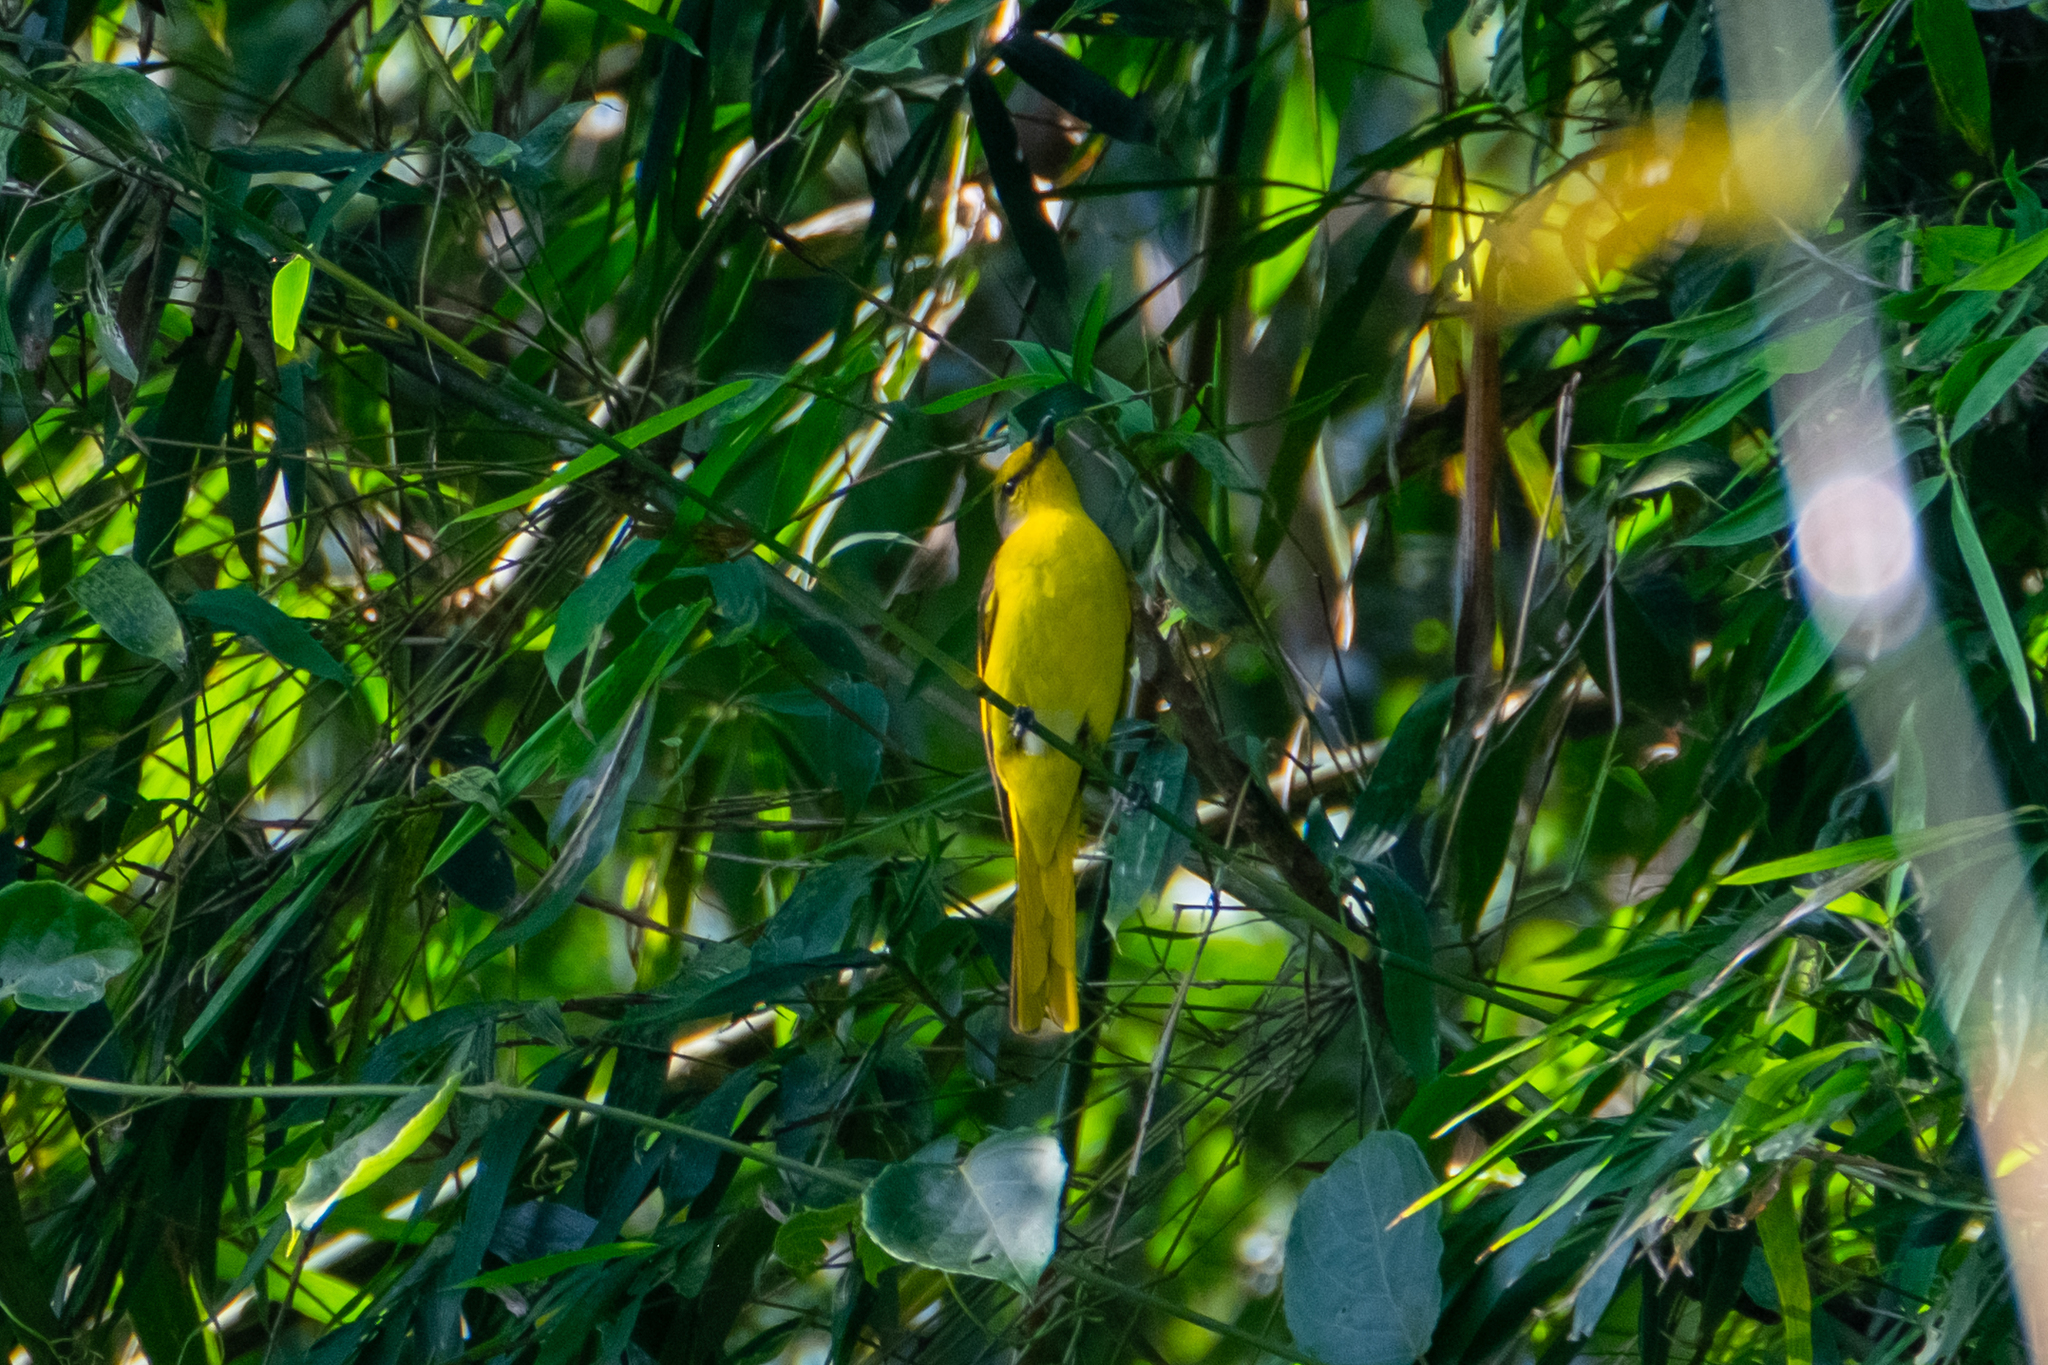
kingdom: Animalia
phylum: Chordata
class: Aves
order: Passeriformes
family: Campephagidae
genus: Pericrocotus
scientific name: Pericrocotus speciosus
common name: Scarlet minivet
